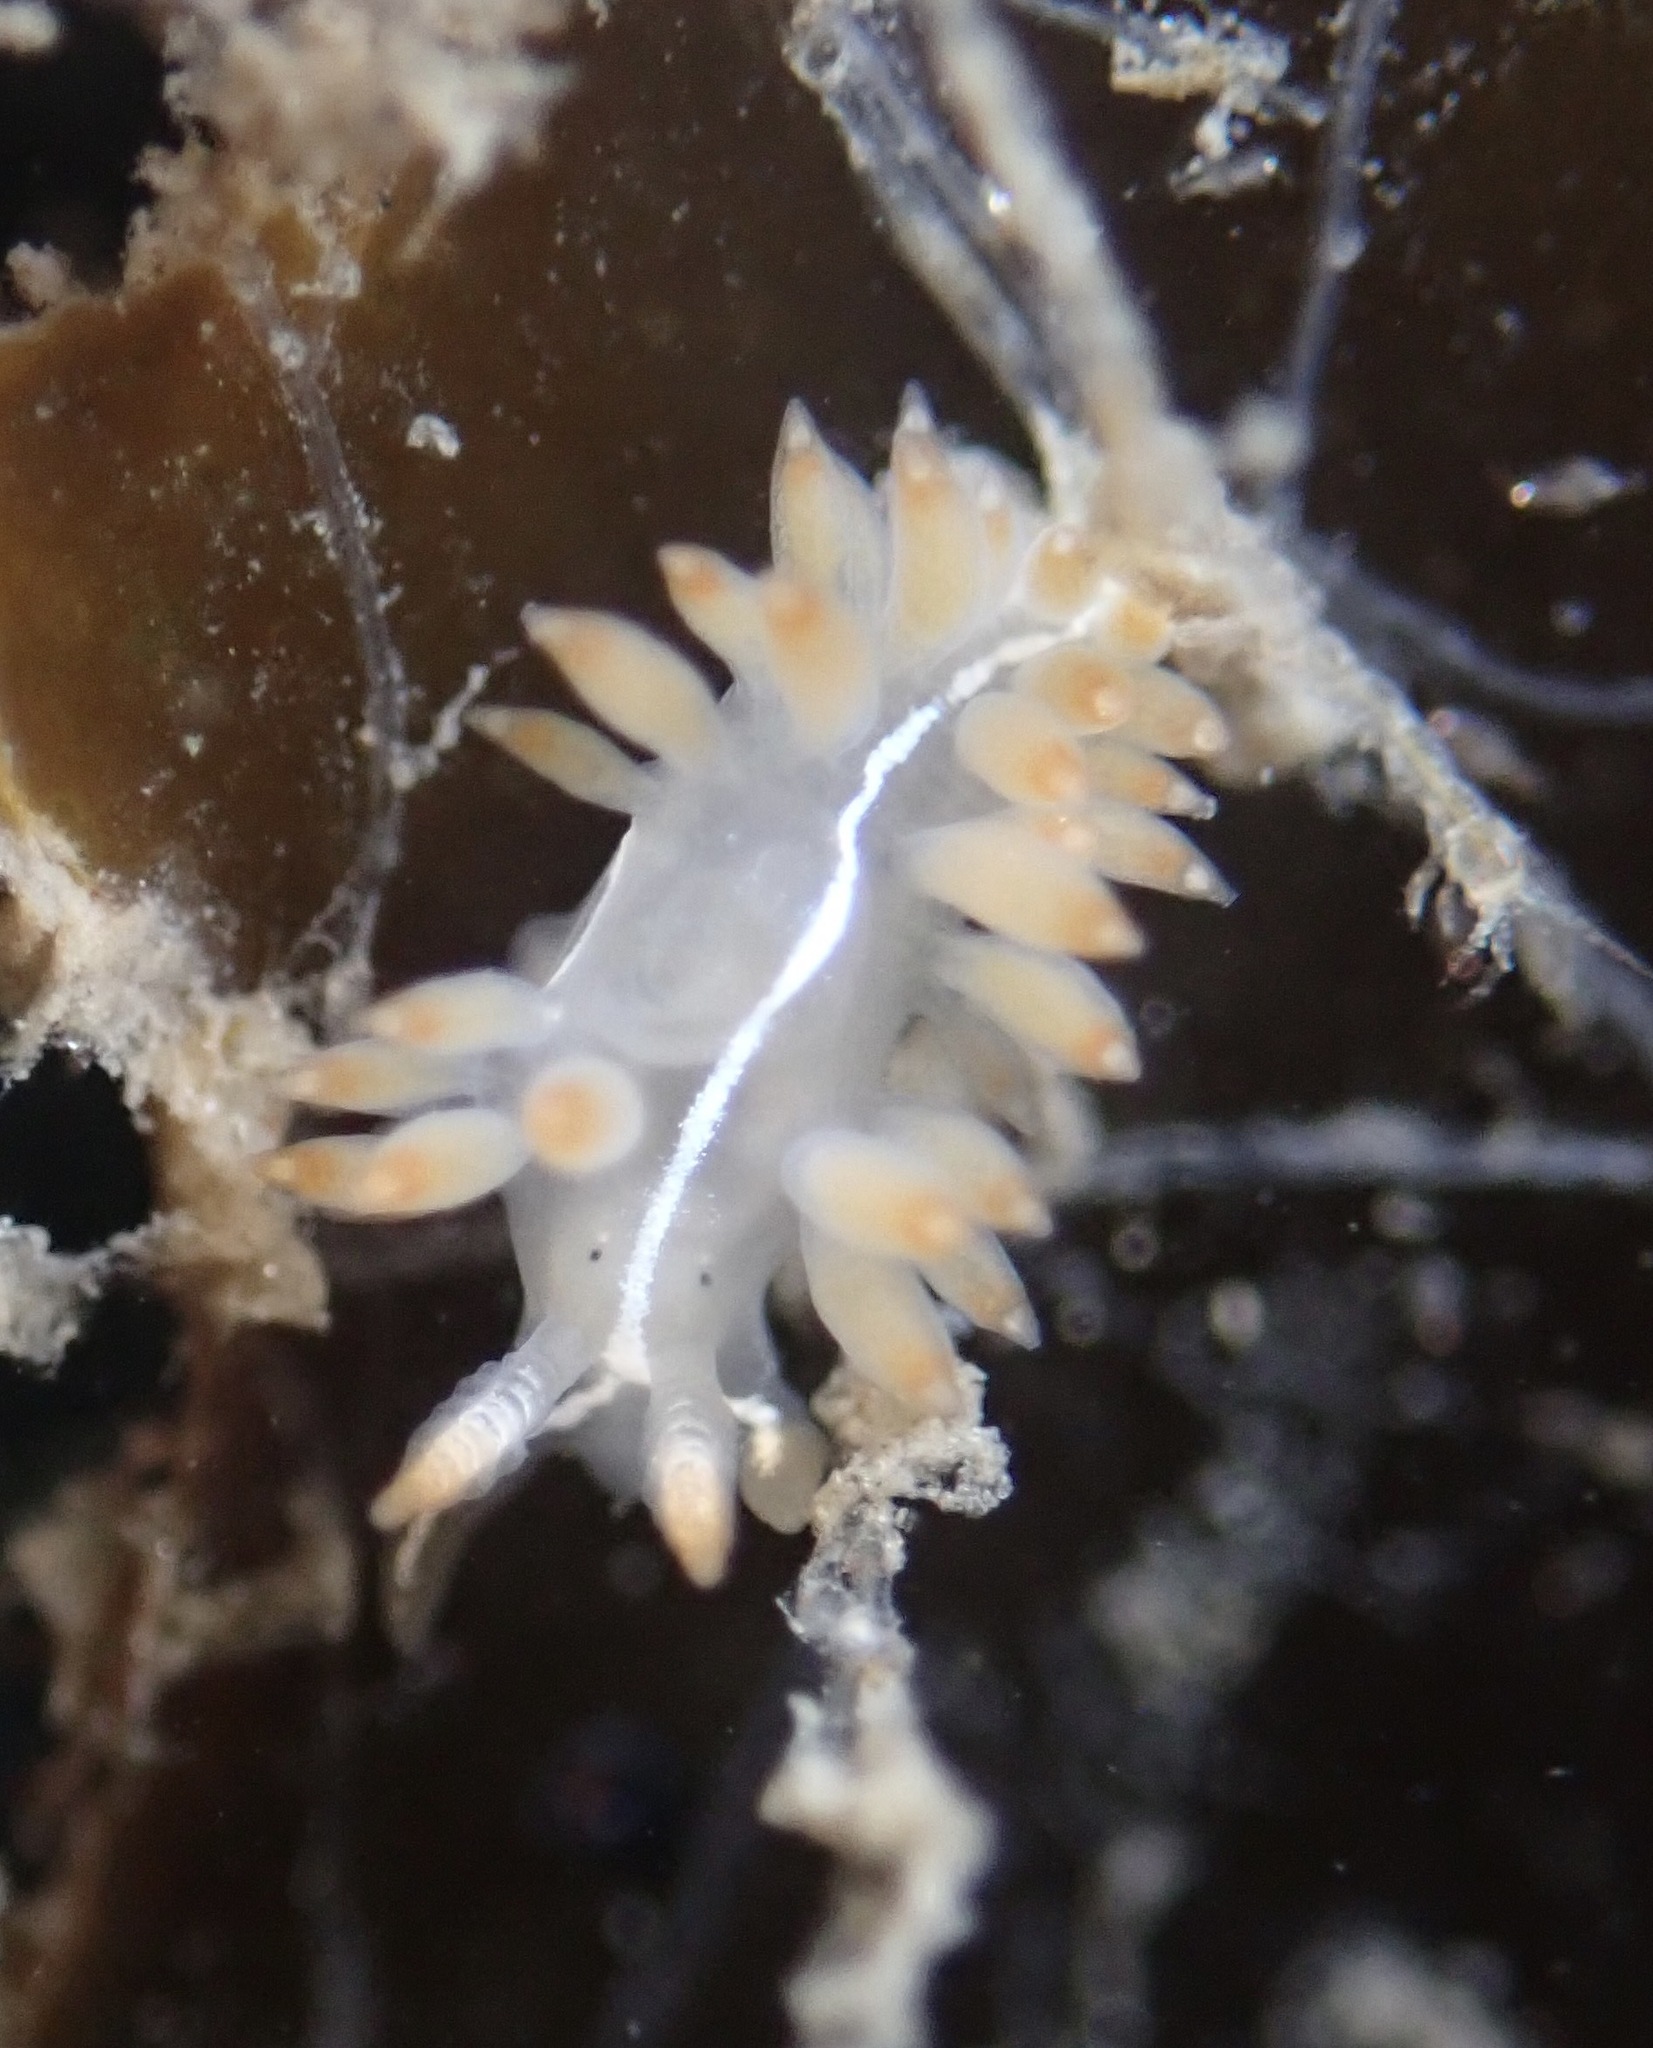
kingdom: Animalia
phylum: Mollusca
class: Gastropoda
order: Nudibranchia
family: Coryphellidae
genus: Coryphella
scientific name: Coryphella trilineata
